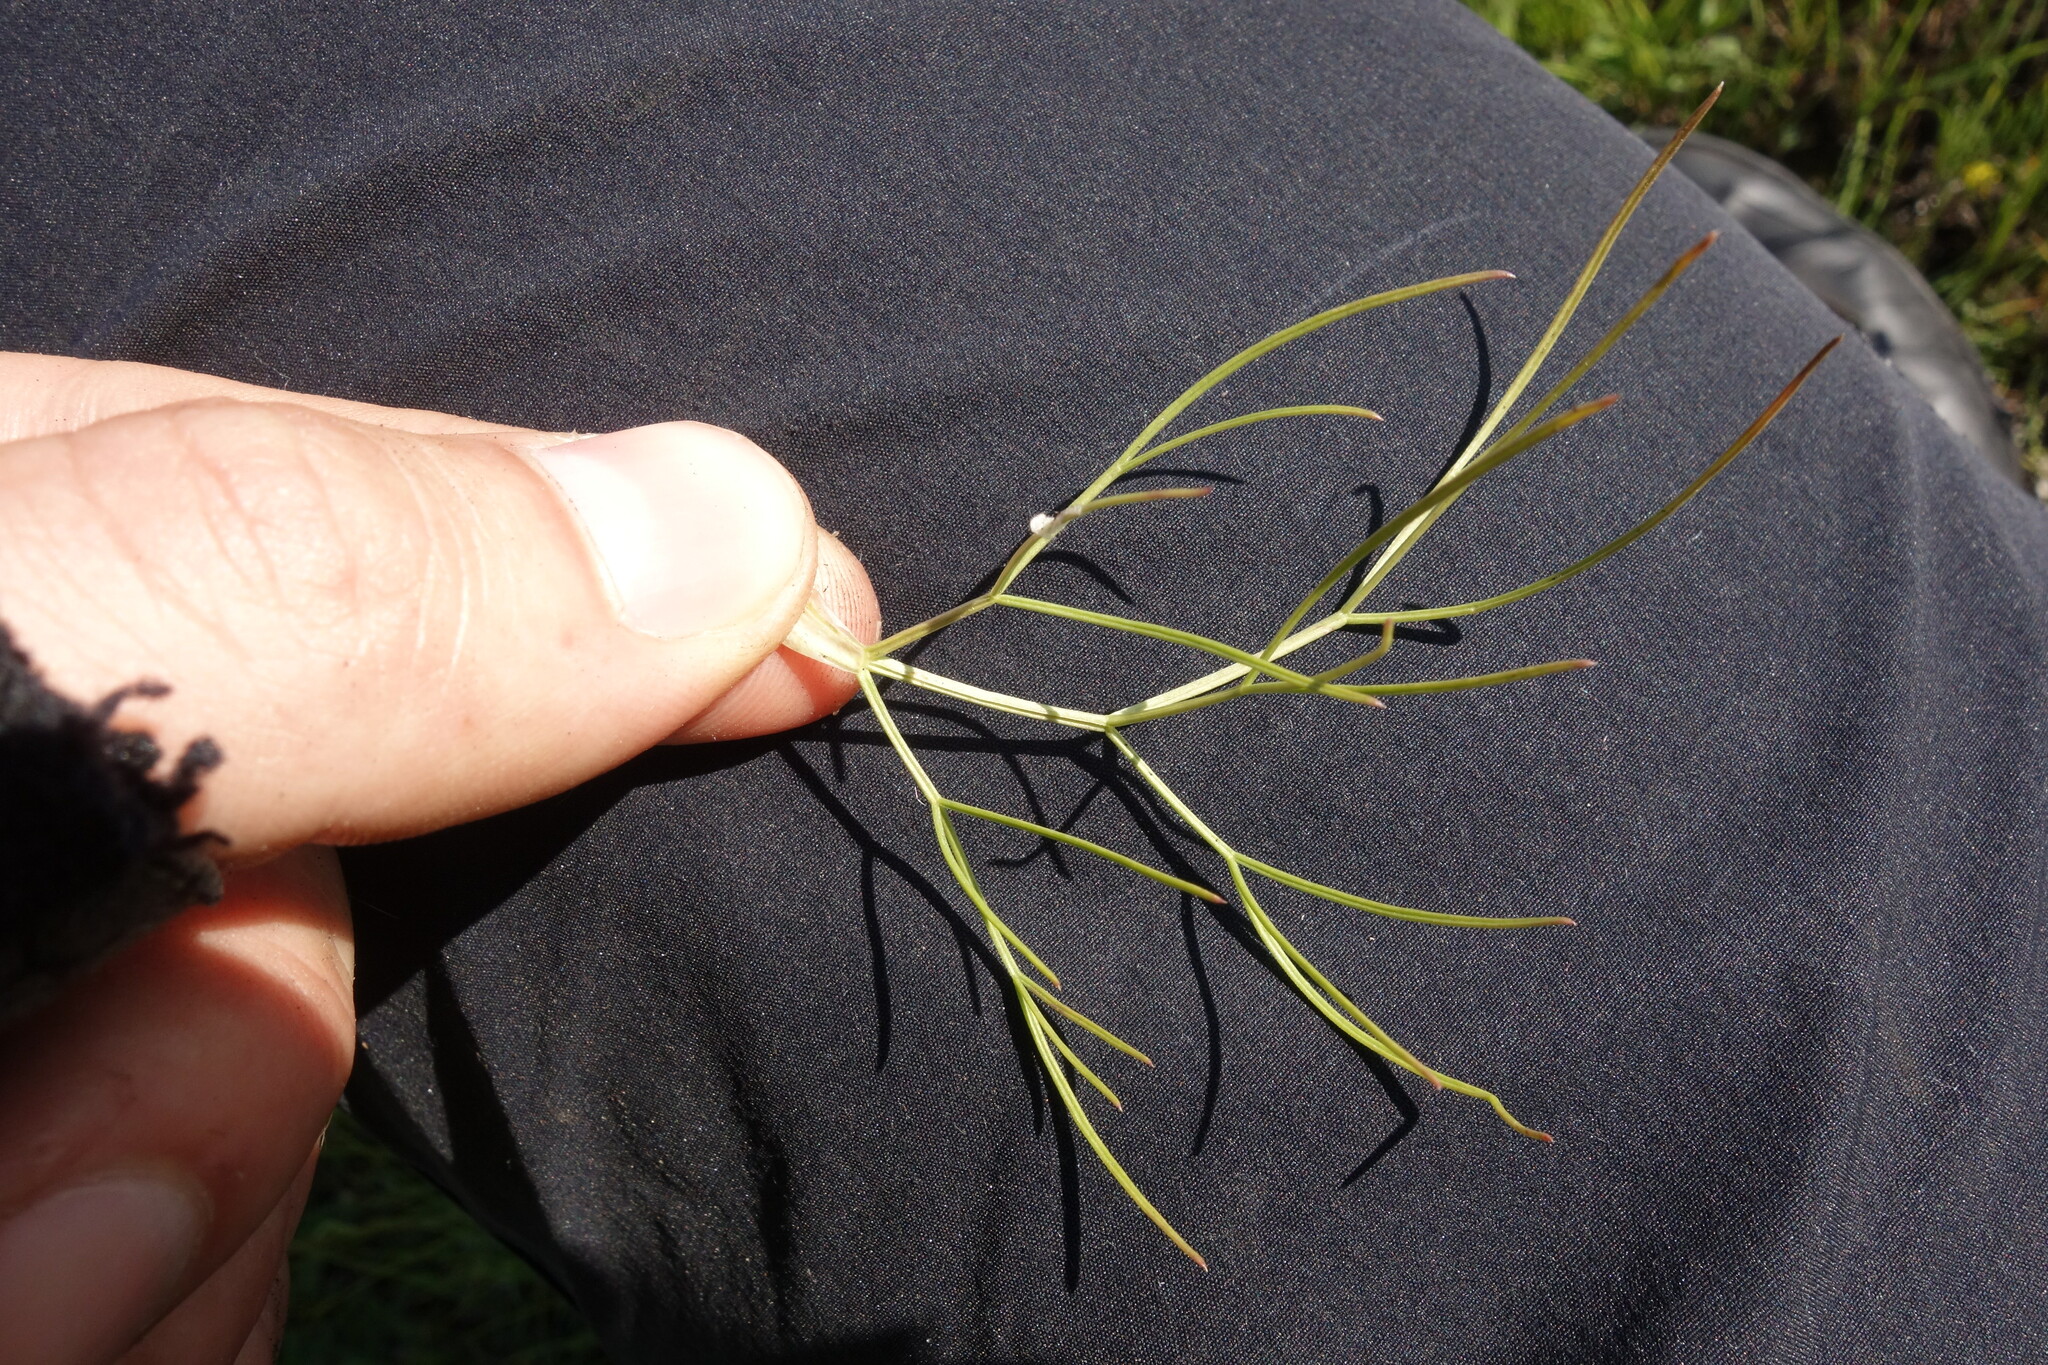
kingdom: Plantae
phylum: Tracheophyta
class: Magnoliopsida
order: Apiales
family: Apiaceae
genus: Trinia
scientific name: Trinia multicaulis
